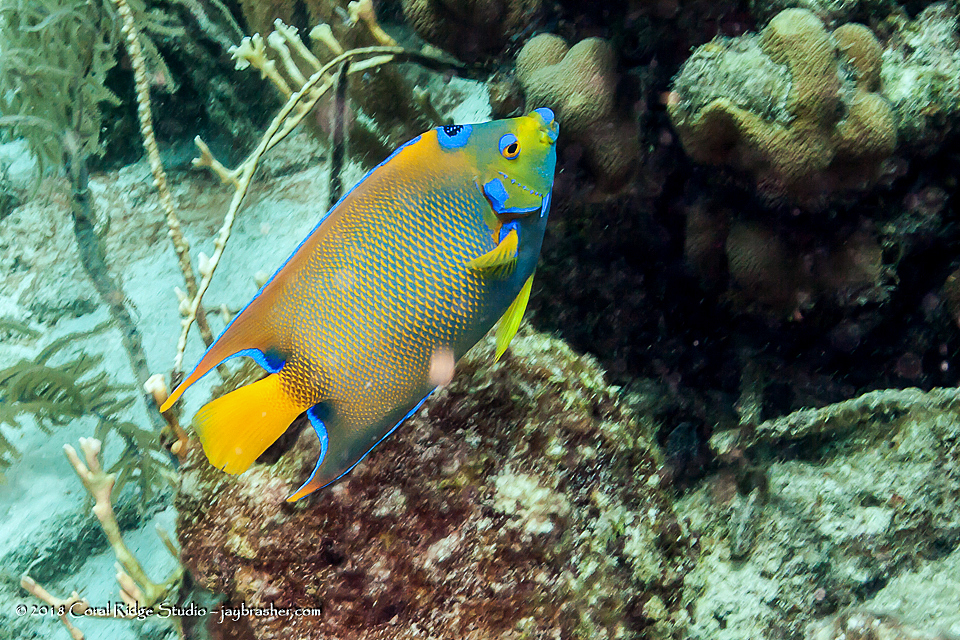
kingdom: Animalia
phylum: Chordata
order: Perciformes
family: Pomacanthidae
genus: Holacanthus
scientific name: Holacanthus ciliaris
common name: Queen angelfish
